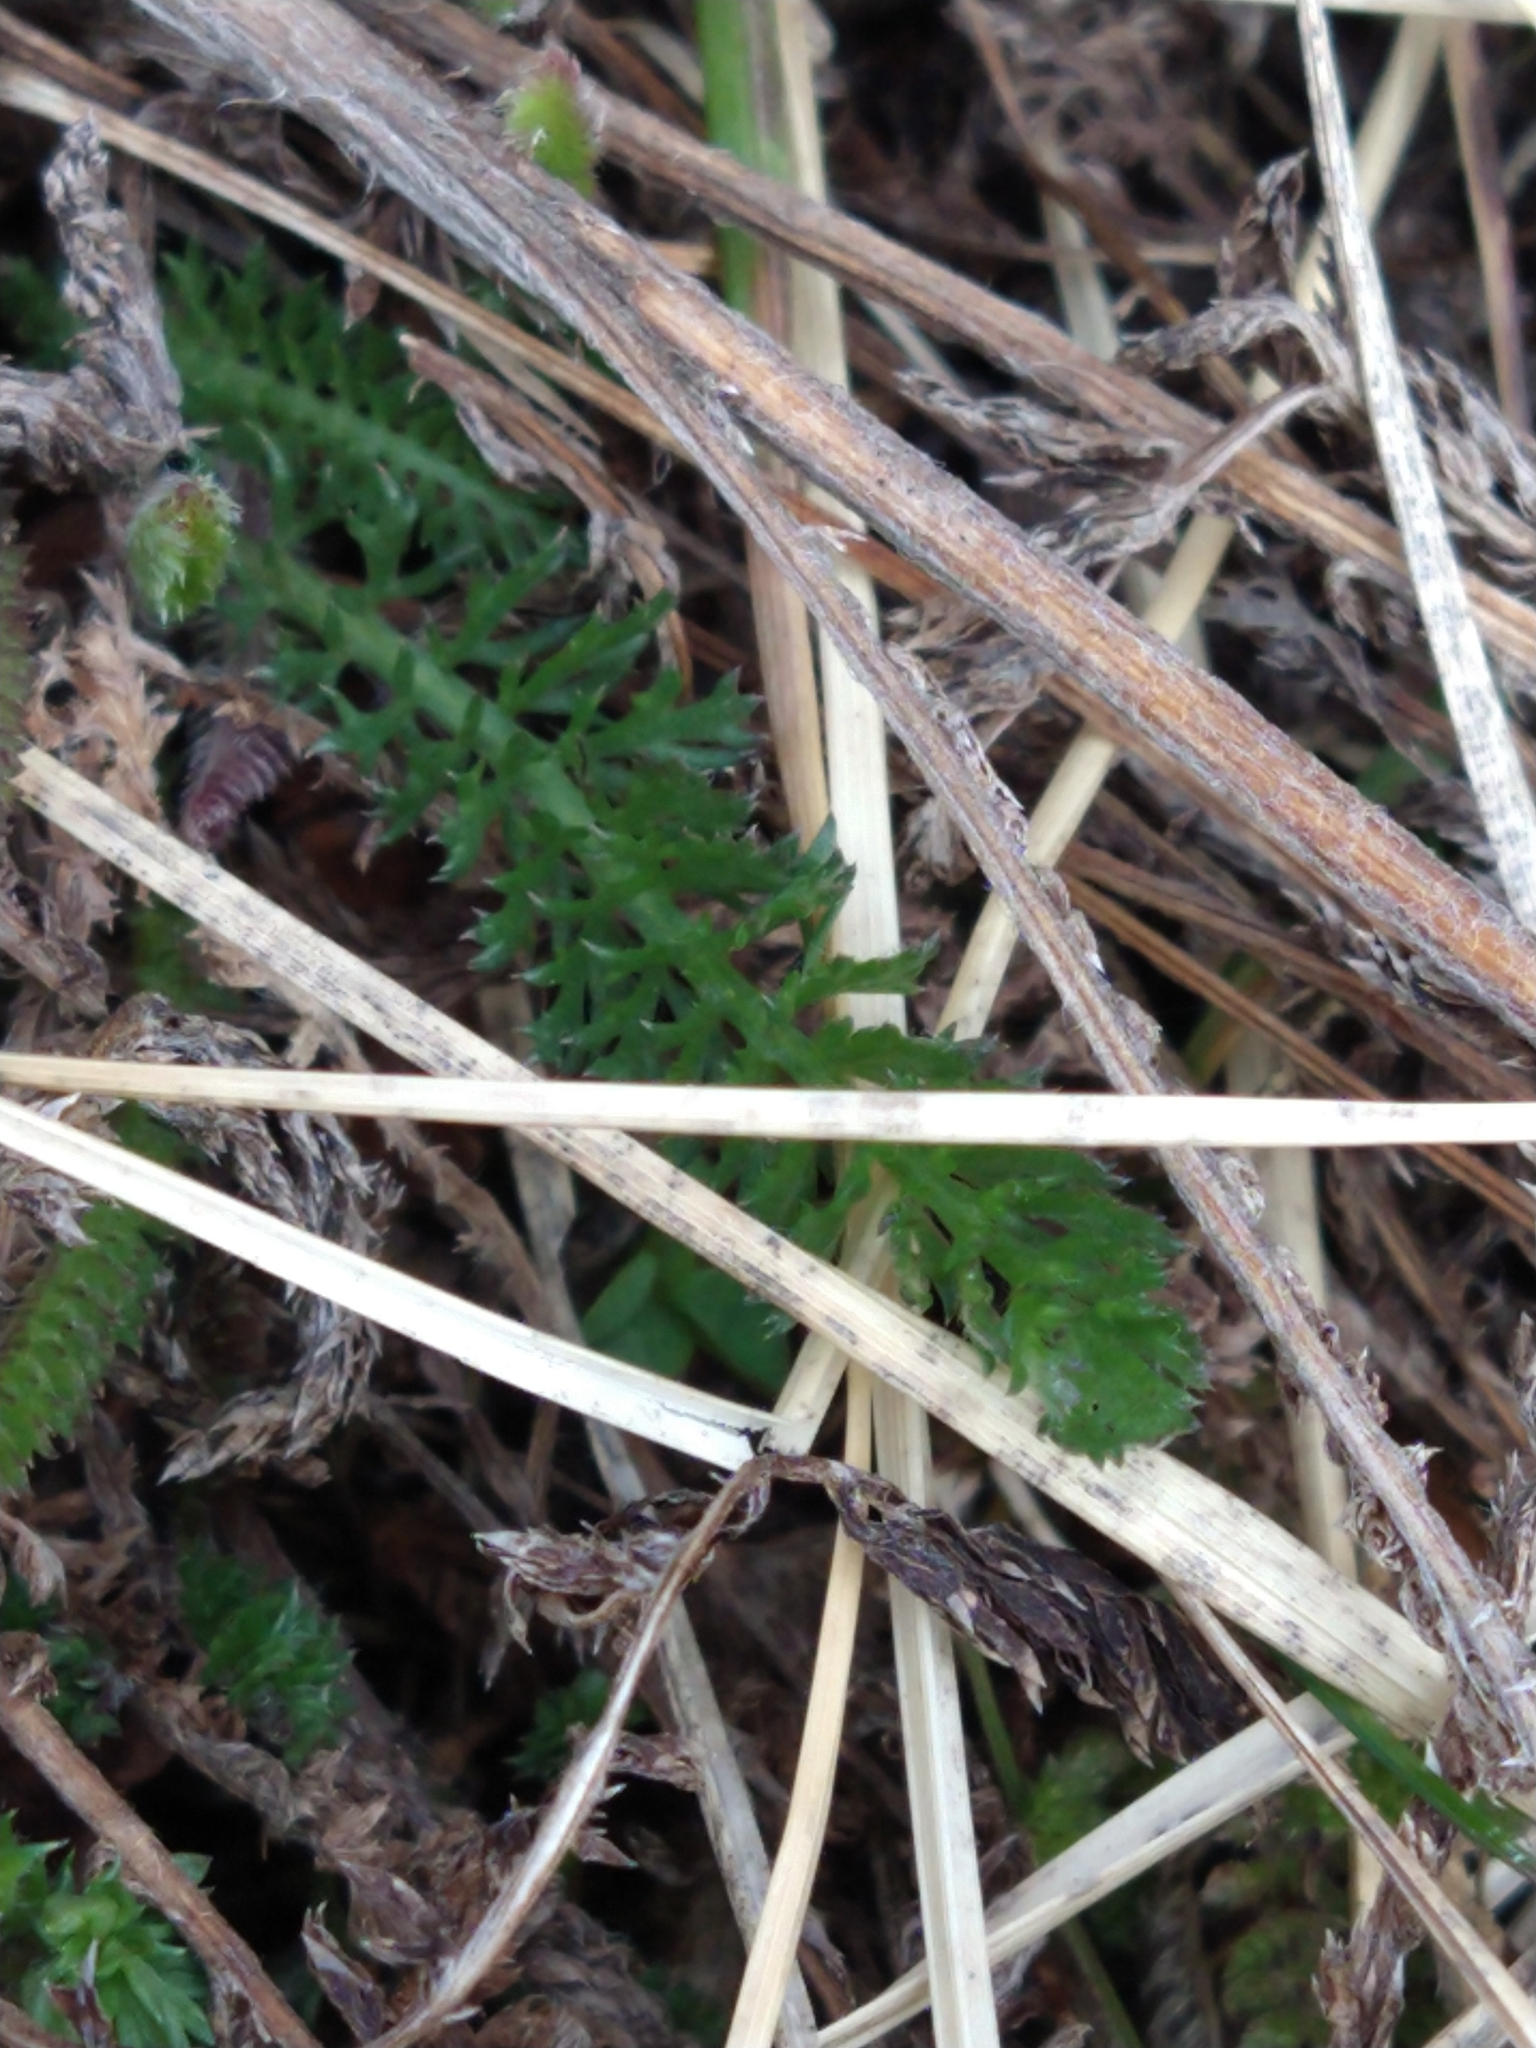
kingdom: Plantae
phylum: Tracheophyta
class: Magnoliopsida
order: Asterales
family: Asteraceae
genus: Achillea
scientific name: Achillea millefolium
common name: Yarrow
